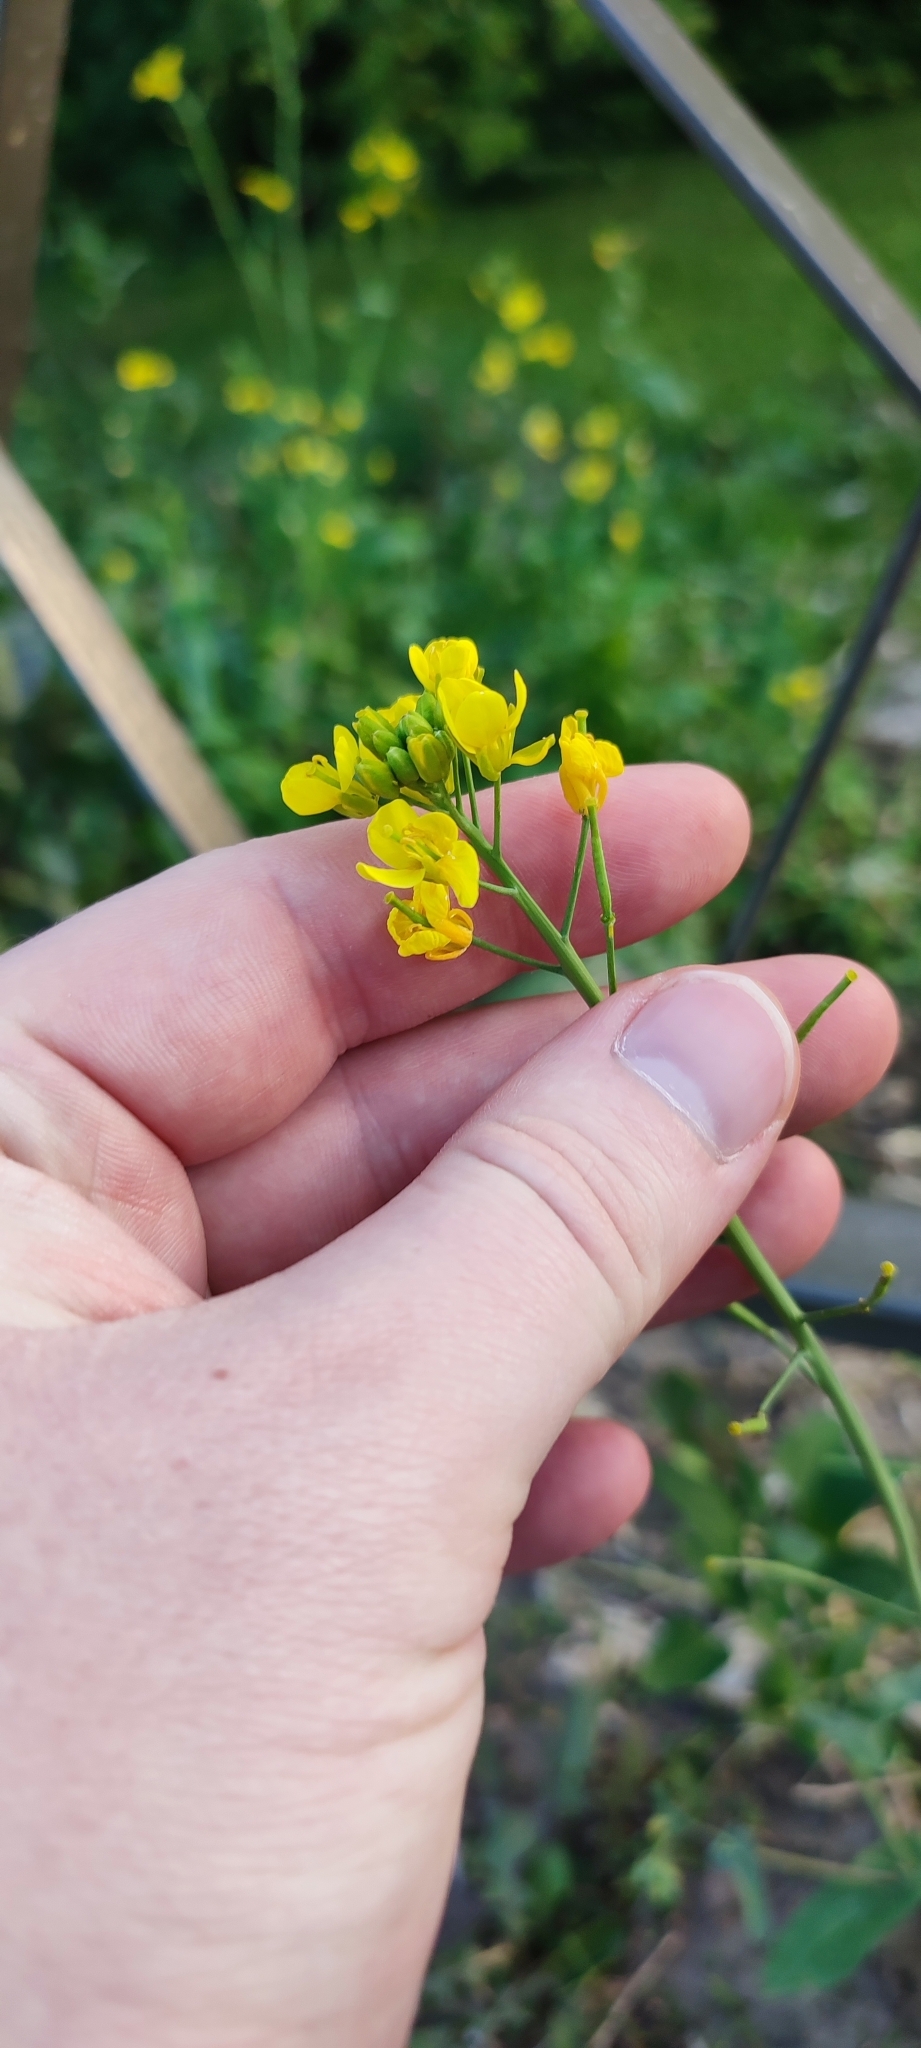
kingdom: Plantae
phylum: Tracheophyta
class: Magnoliopsida
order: Brassicales
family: Brassicaceae
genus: Brassica
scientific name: Brassica rapa
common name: Field mustard
